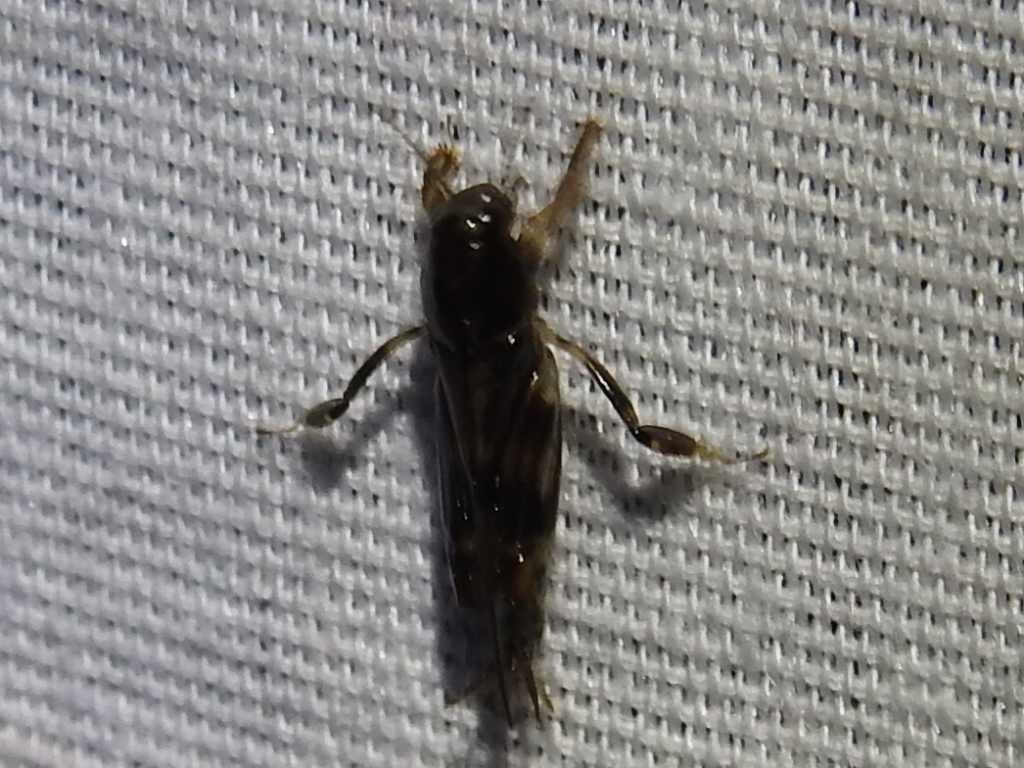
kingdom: Animalia
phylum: Arthropoda
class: Insecta
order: Orthoptera
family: Tridactylidae
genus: Neotridactylus
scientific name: Neotridactylus apicialis
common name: Larger pygmy locust
